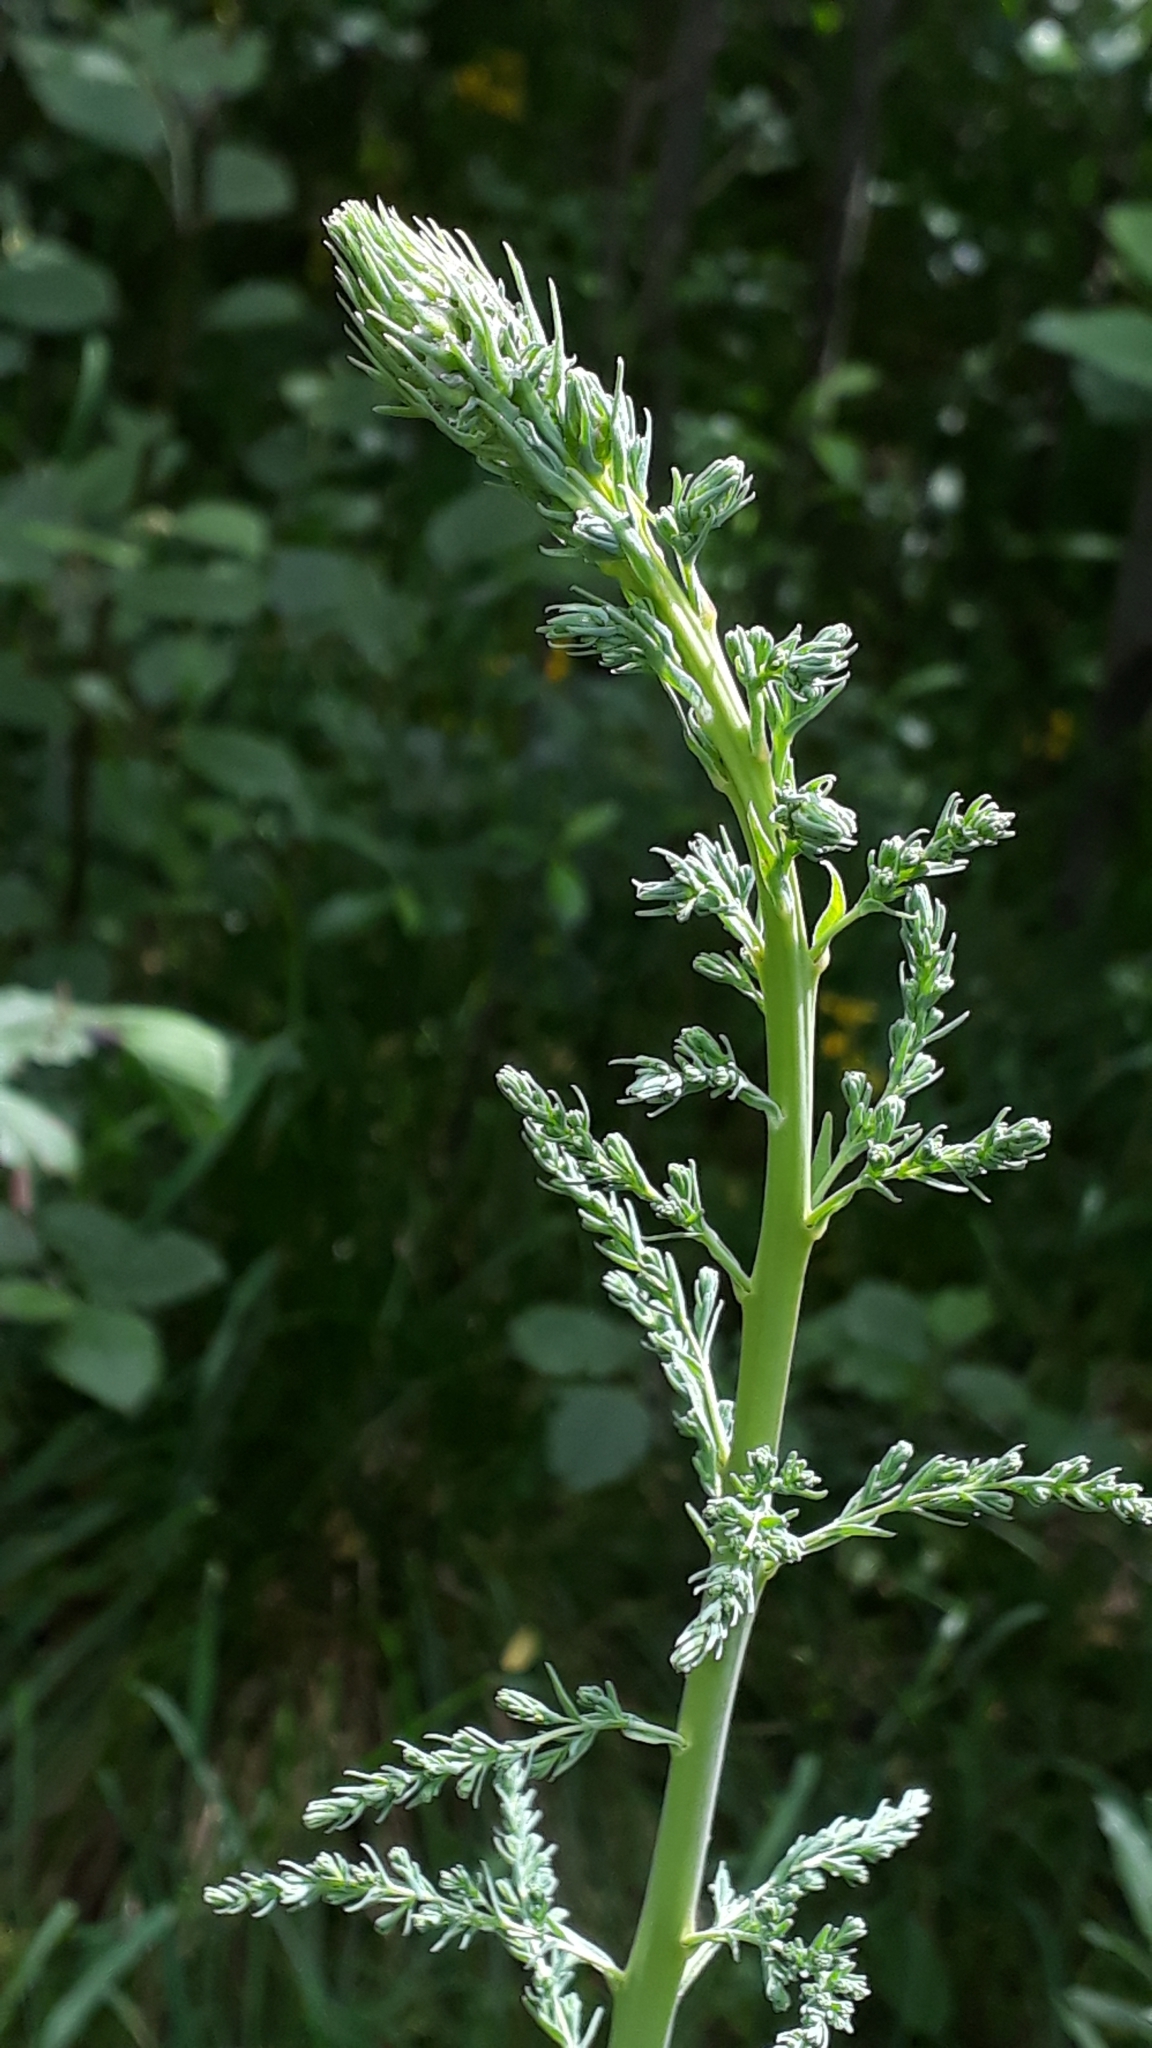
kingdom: Plantae
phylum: Tracheophyta
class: Magnoliopsida
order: Caryophyllales
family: Tamaricaceae
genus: Myricaria
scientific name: Myricaria germanica
